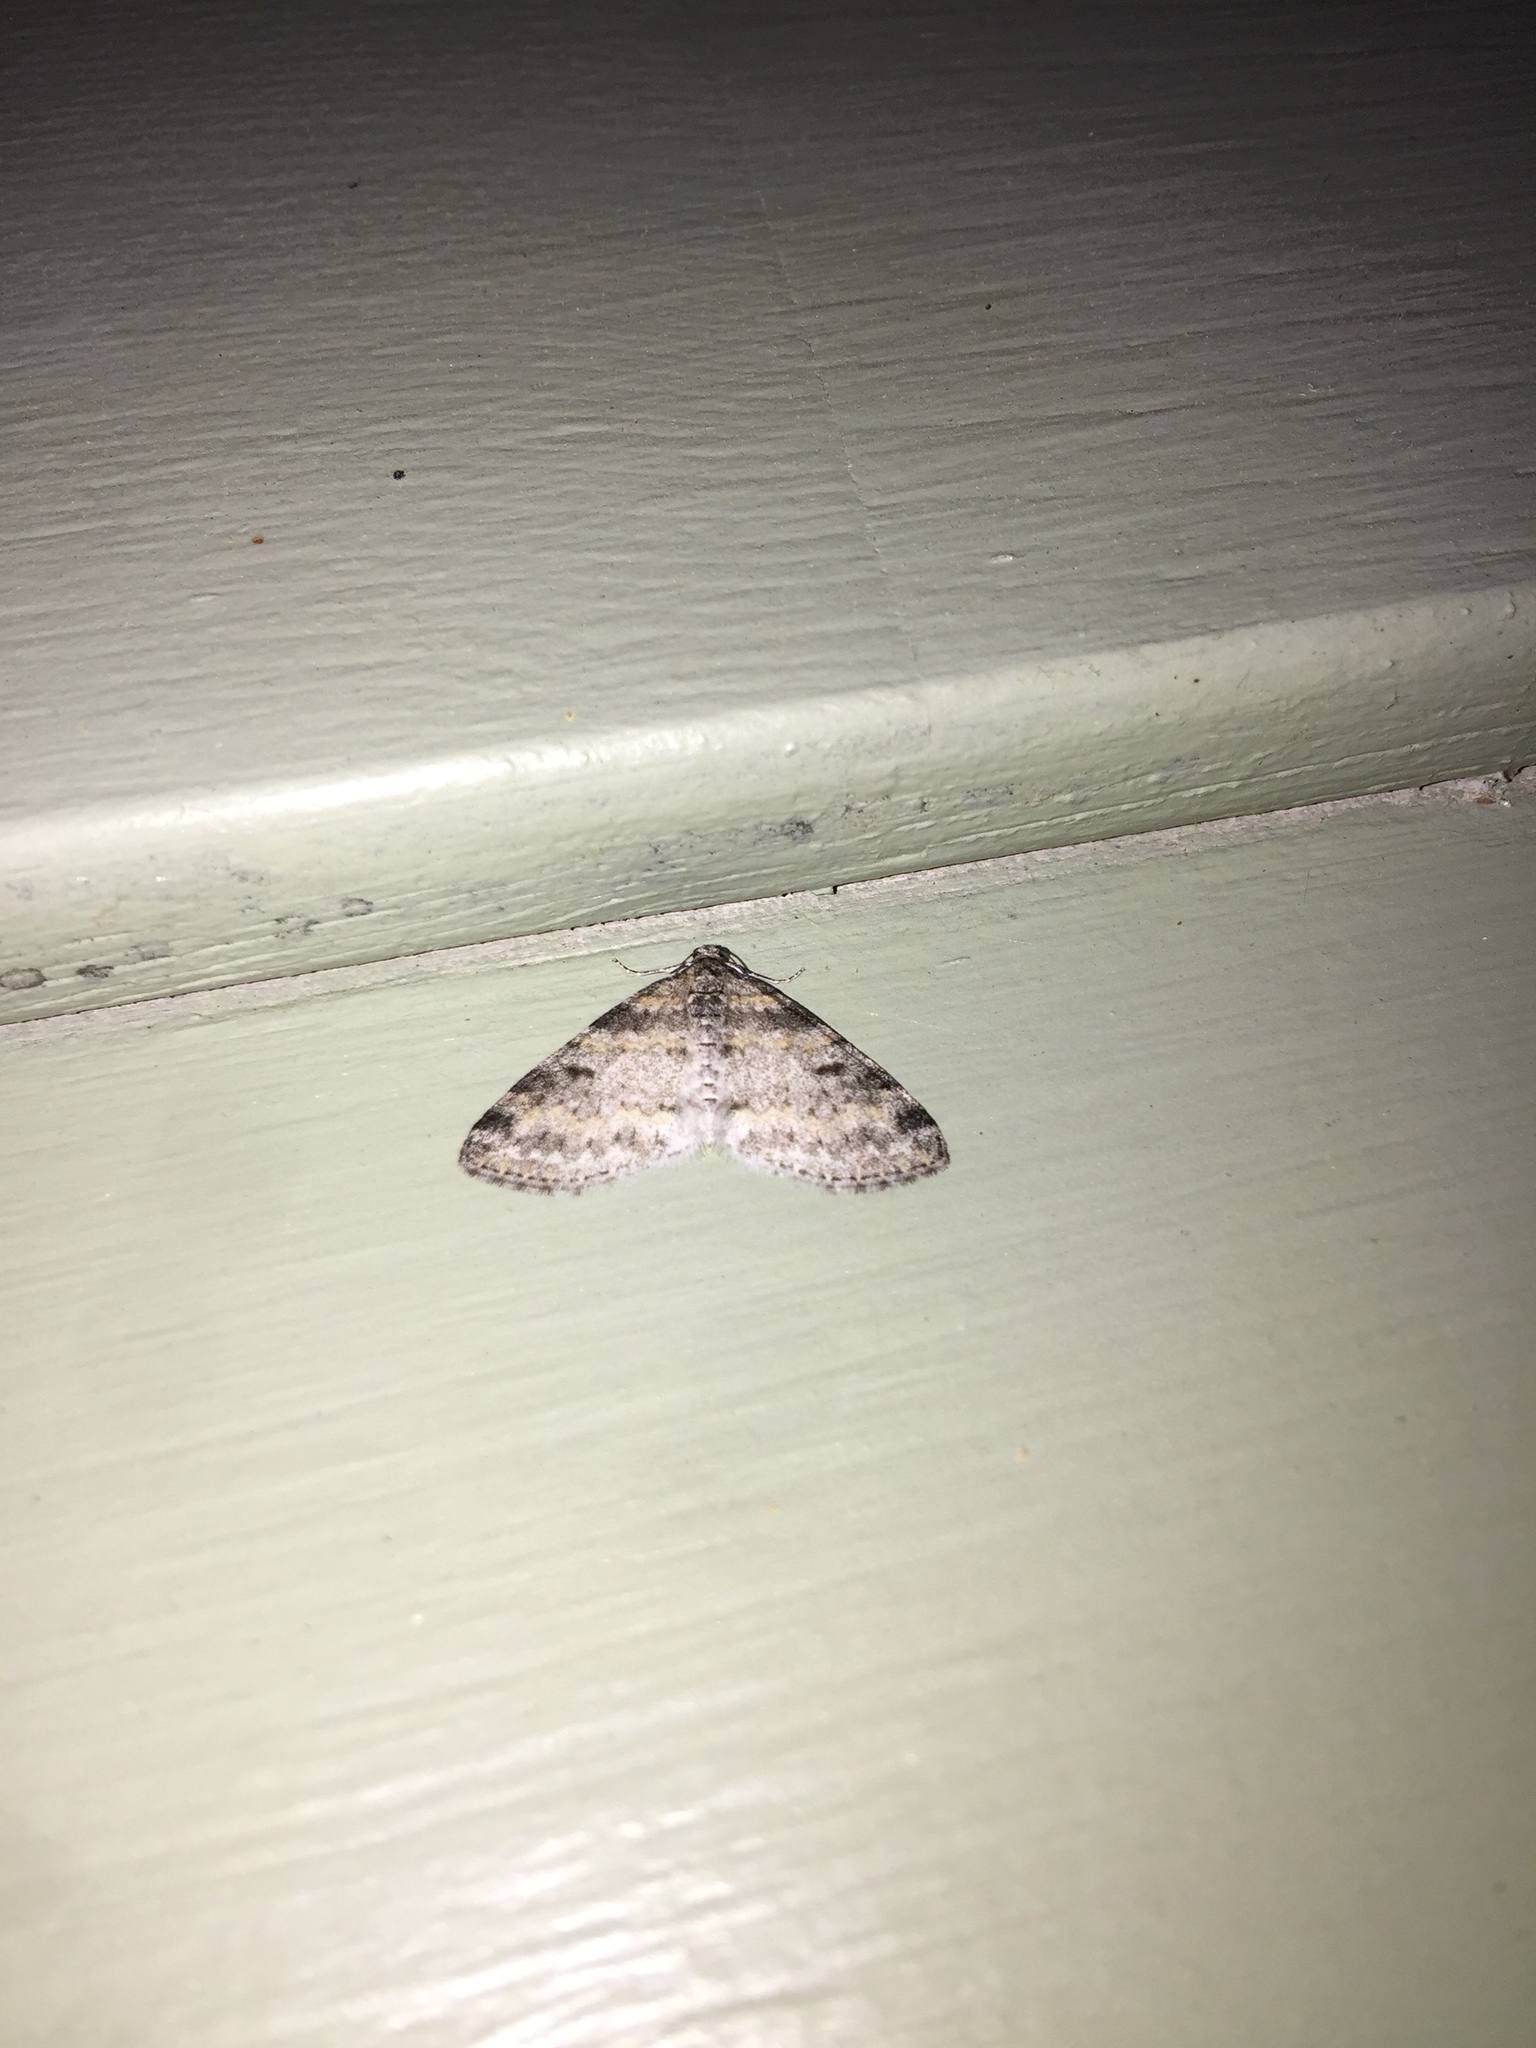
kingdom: Animalia
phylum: Arthropoda
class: Insecta
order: Lepidoptera
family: Geometridae
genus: Lobophora
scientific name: Lobophora nivigerata
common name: Powdered bigwing
